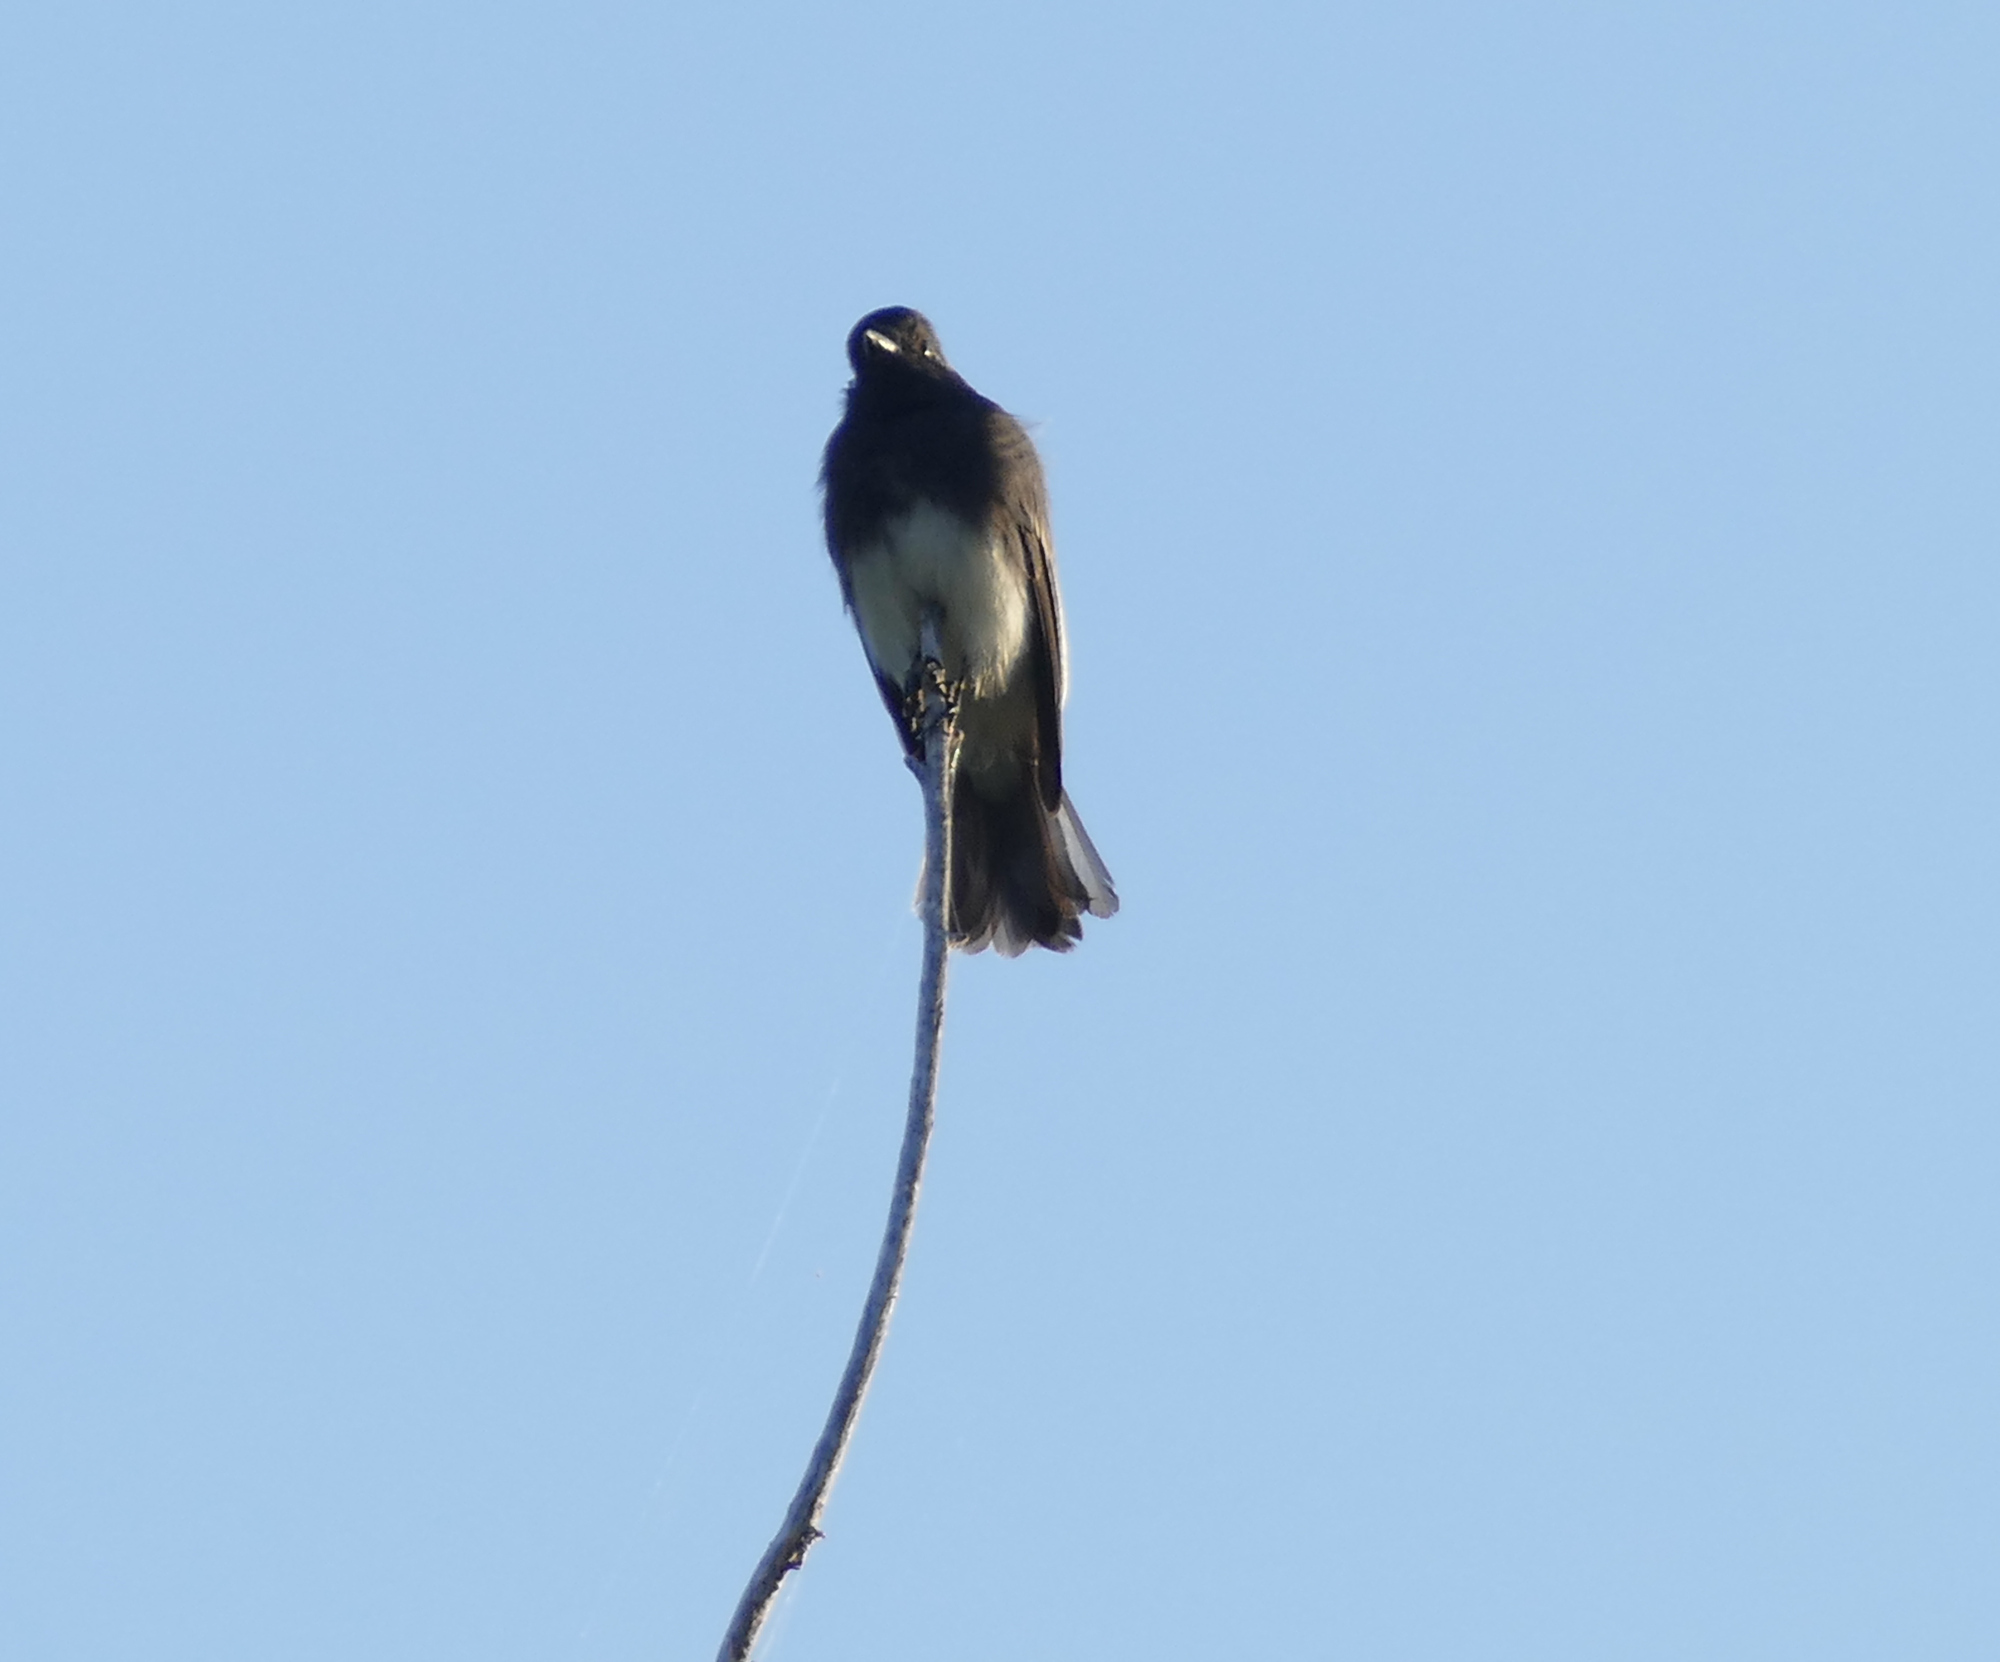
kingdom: Animalia
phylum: Chordata
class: Aves
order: Passeriformes
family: Tyrannidae
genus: Sayornis
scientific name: Sayornis nigricans
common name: Black phoebe
